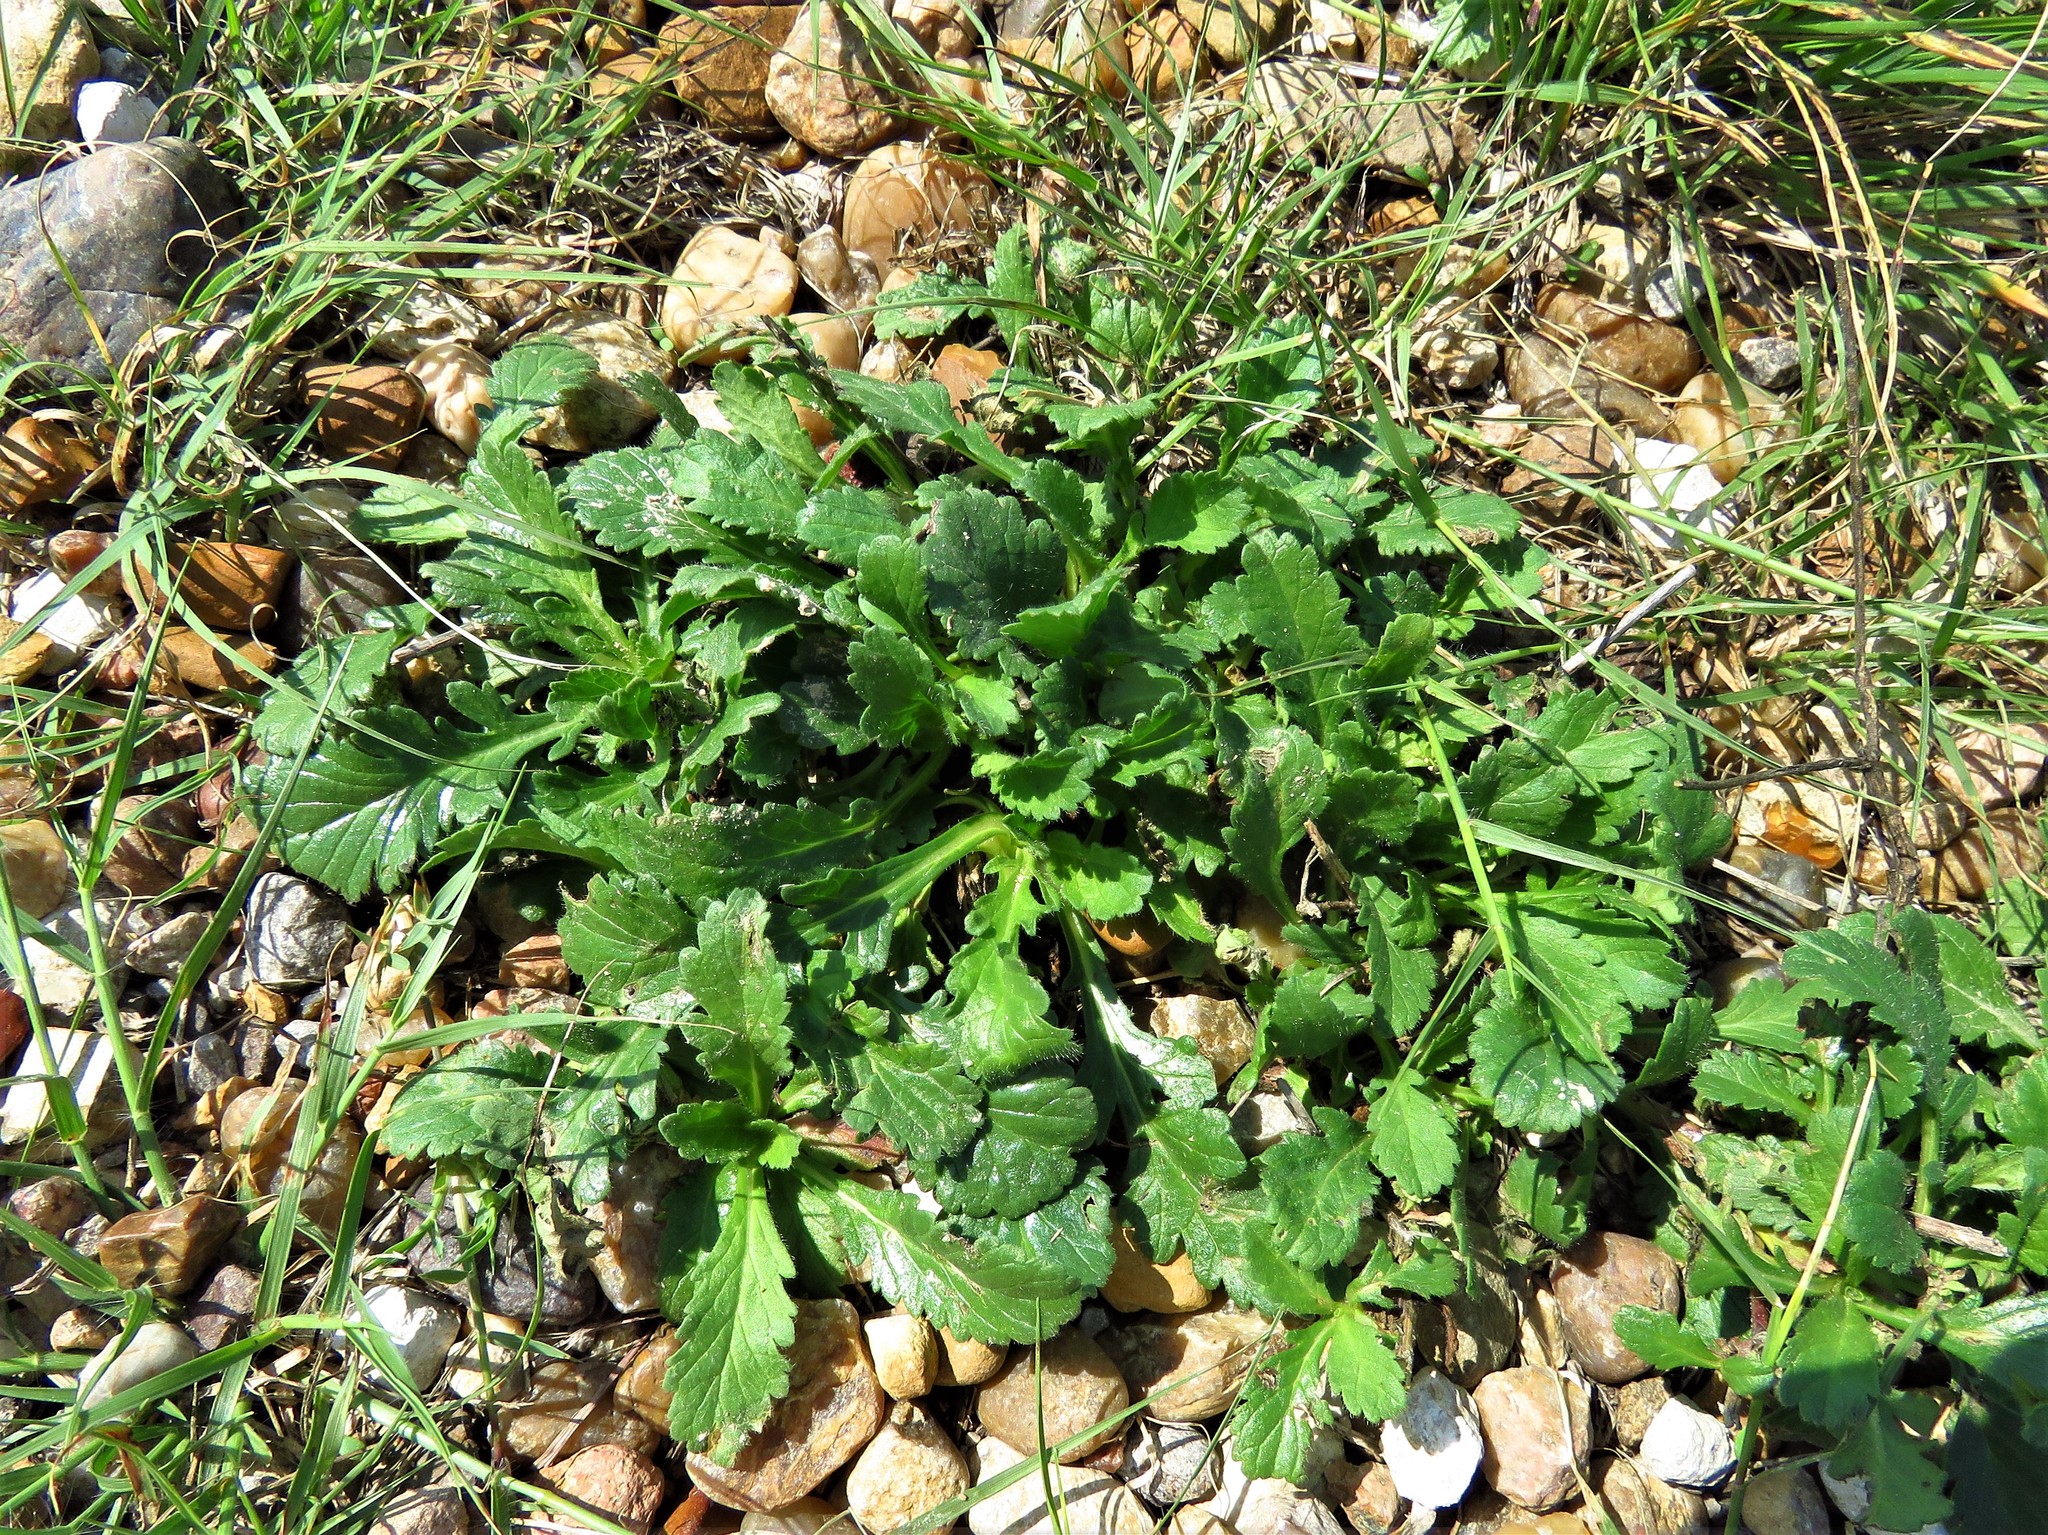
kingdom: Plantae
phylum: Tracheophyta
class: Magnoliopsida
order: Dipsacales
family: Caprifoliaceae
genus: Sixalix
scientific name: Sixalix atropurpurea
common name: Sweet scabious
